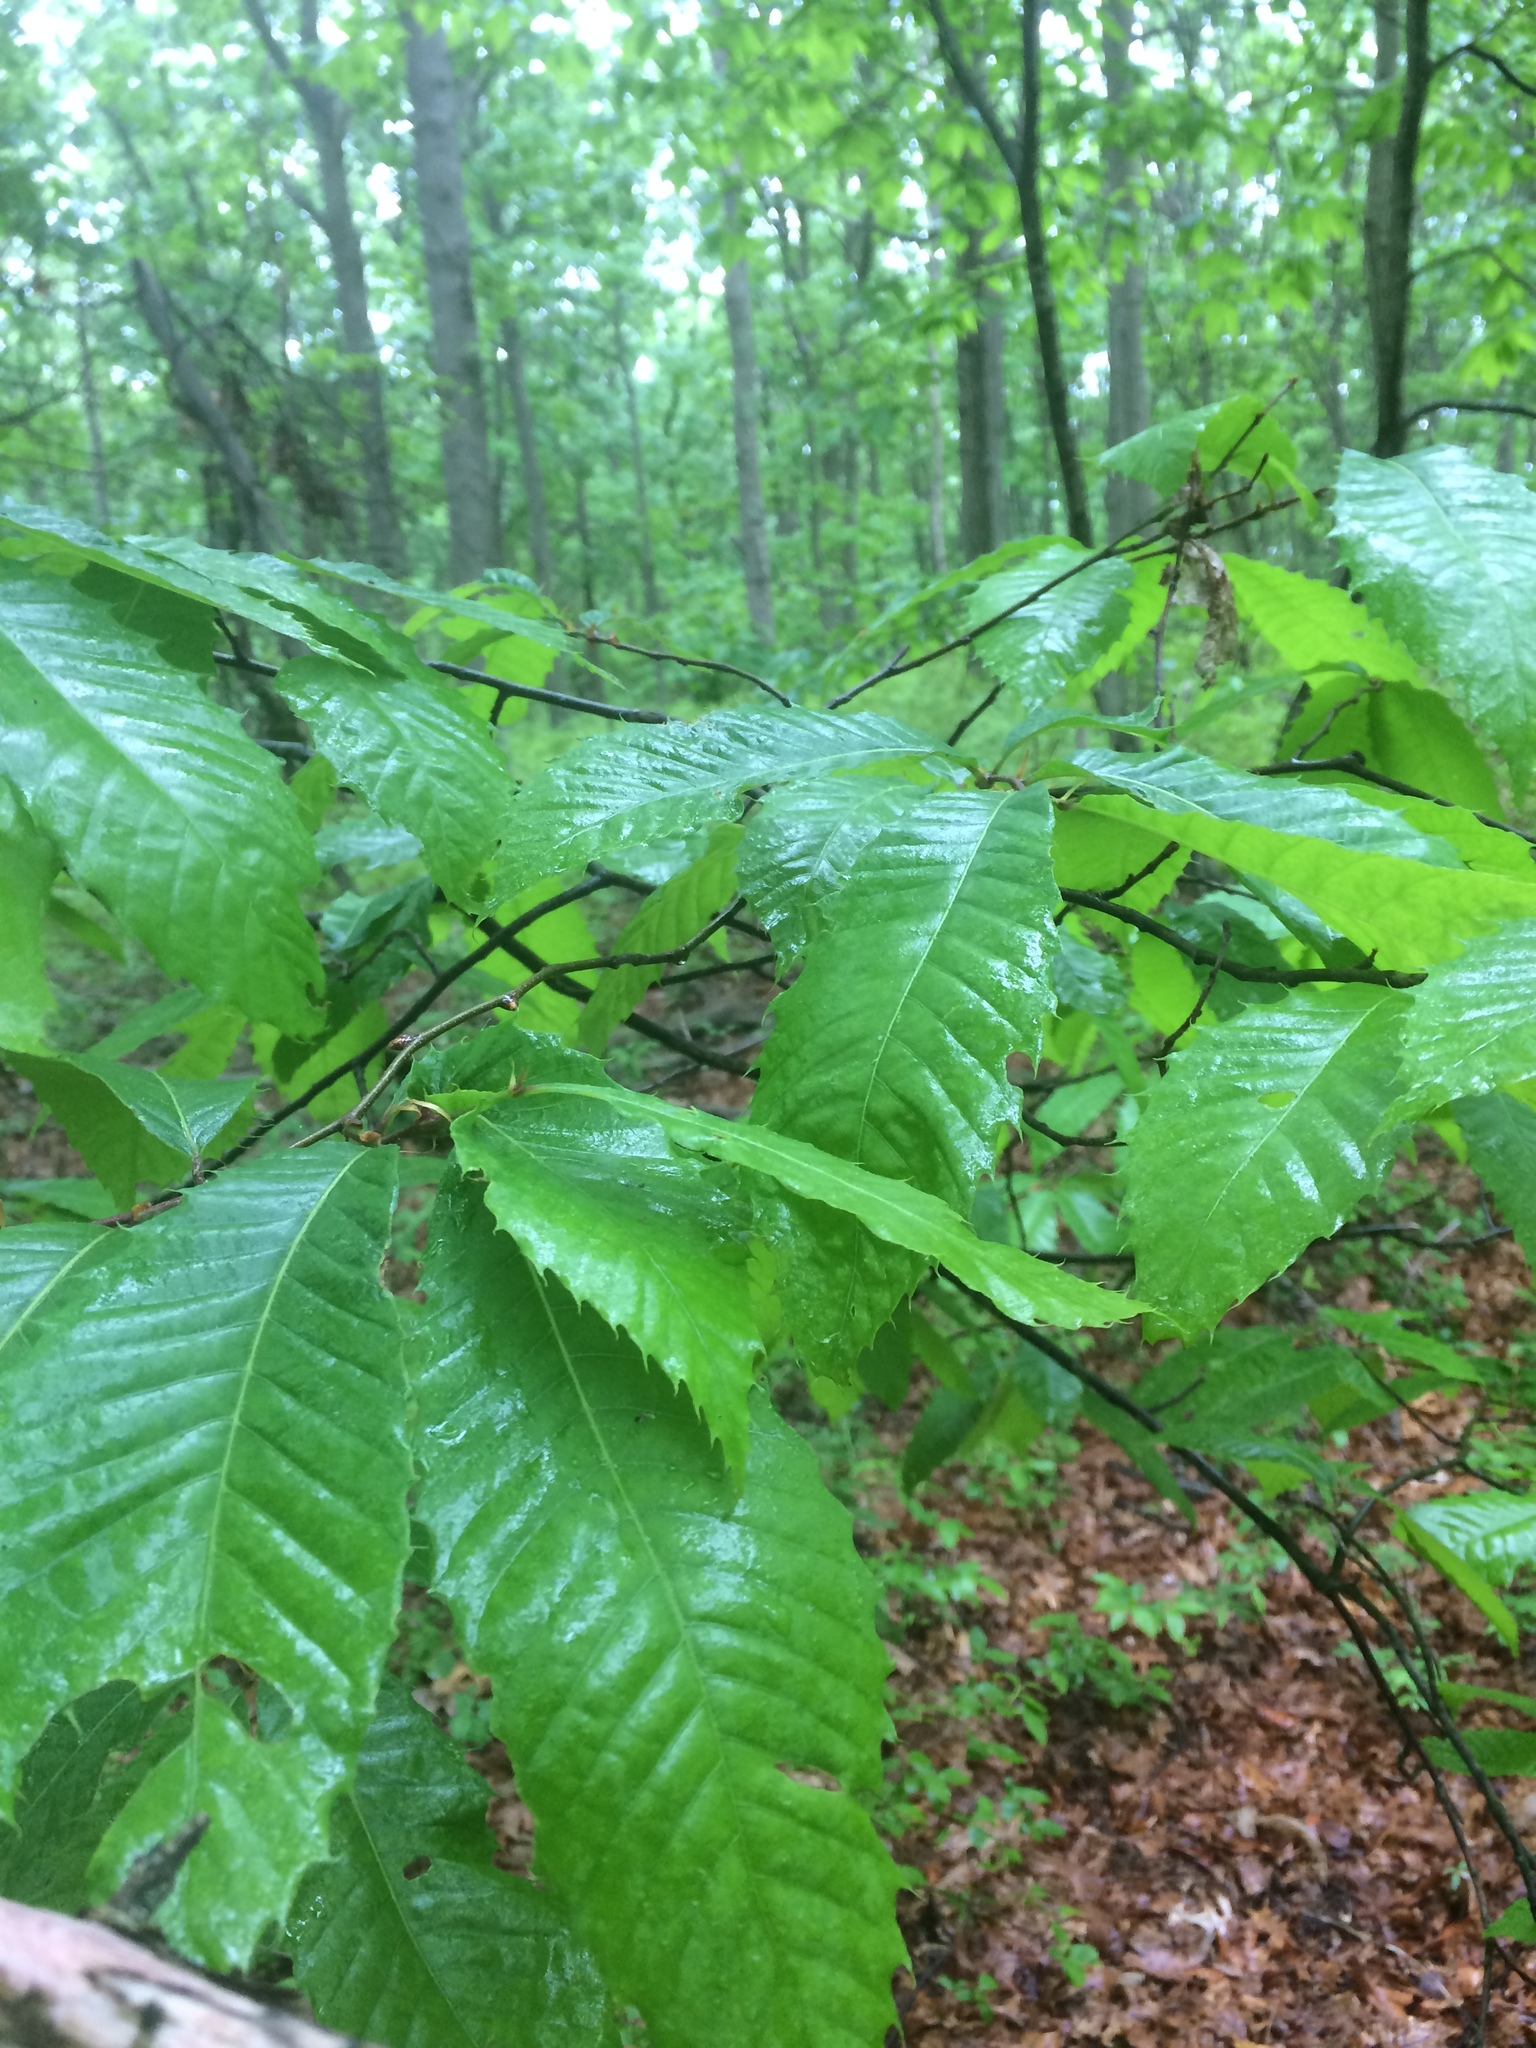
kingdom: Plantae
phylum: Tracheophyta
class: Magnoliopsida
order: Fagales
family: Fagaceae
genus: Castanea
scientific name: Castanea dentata
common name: American chestnut
